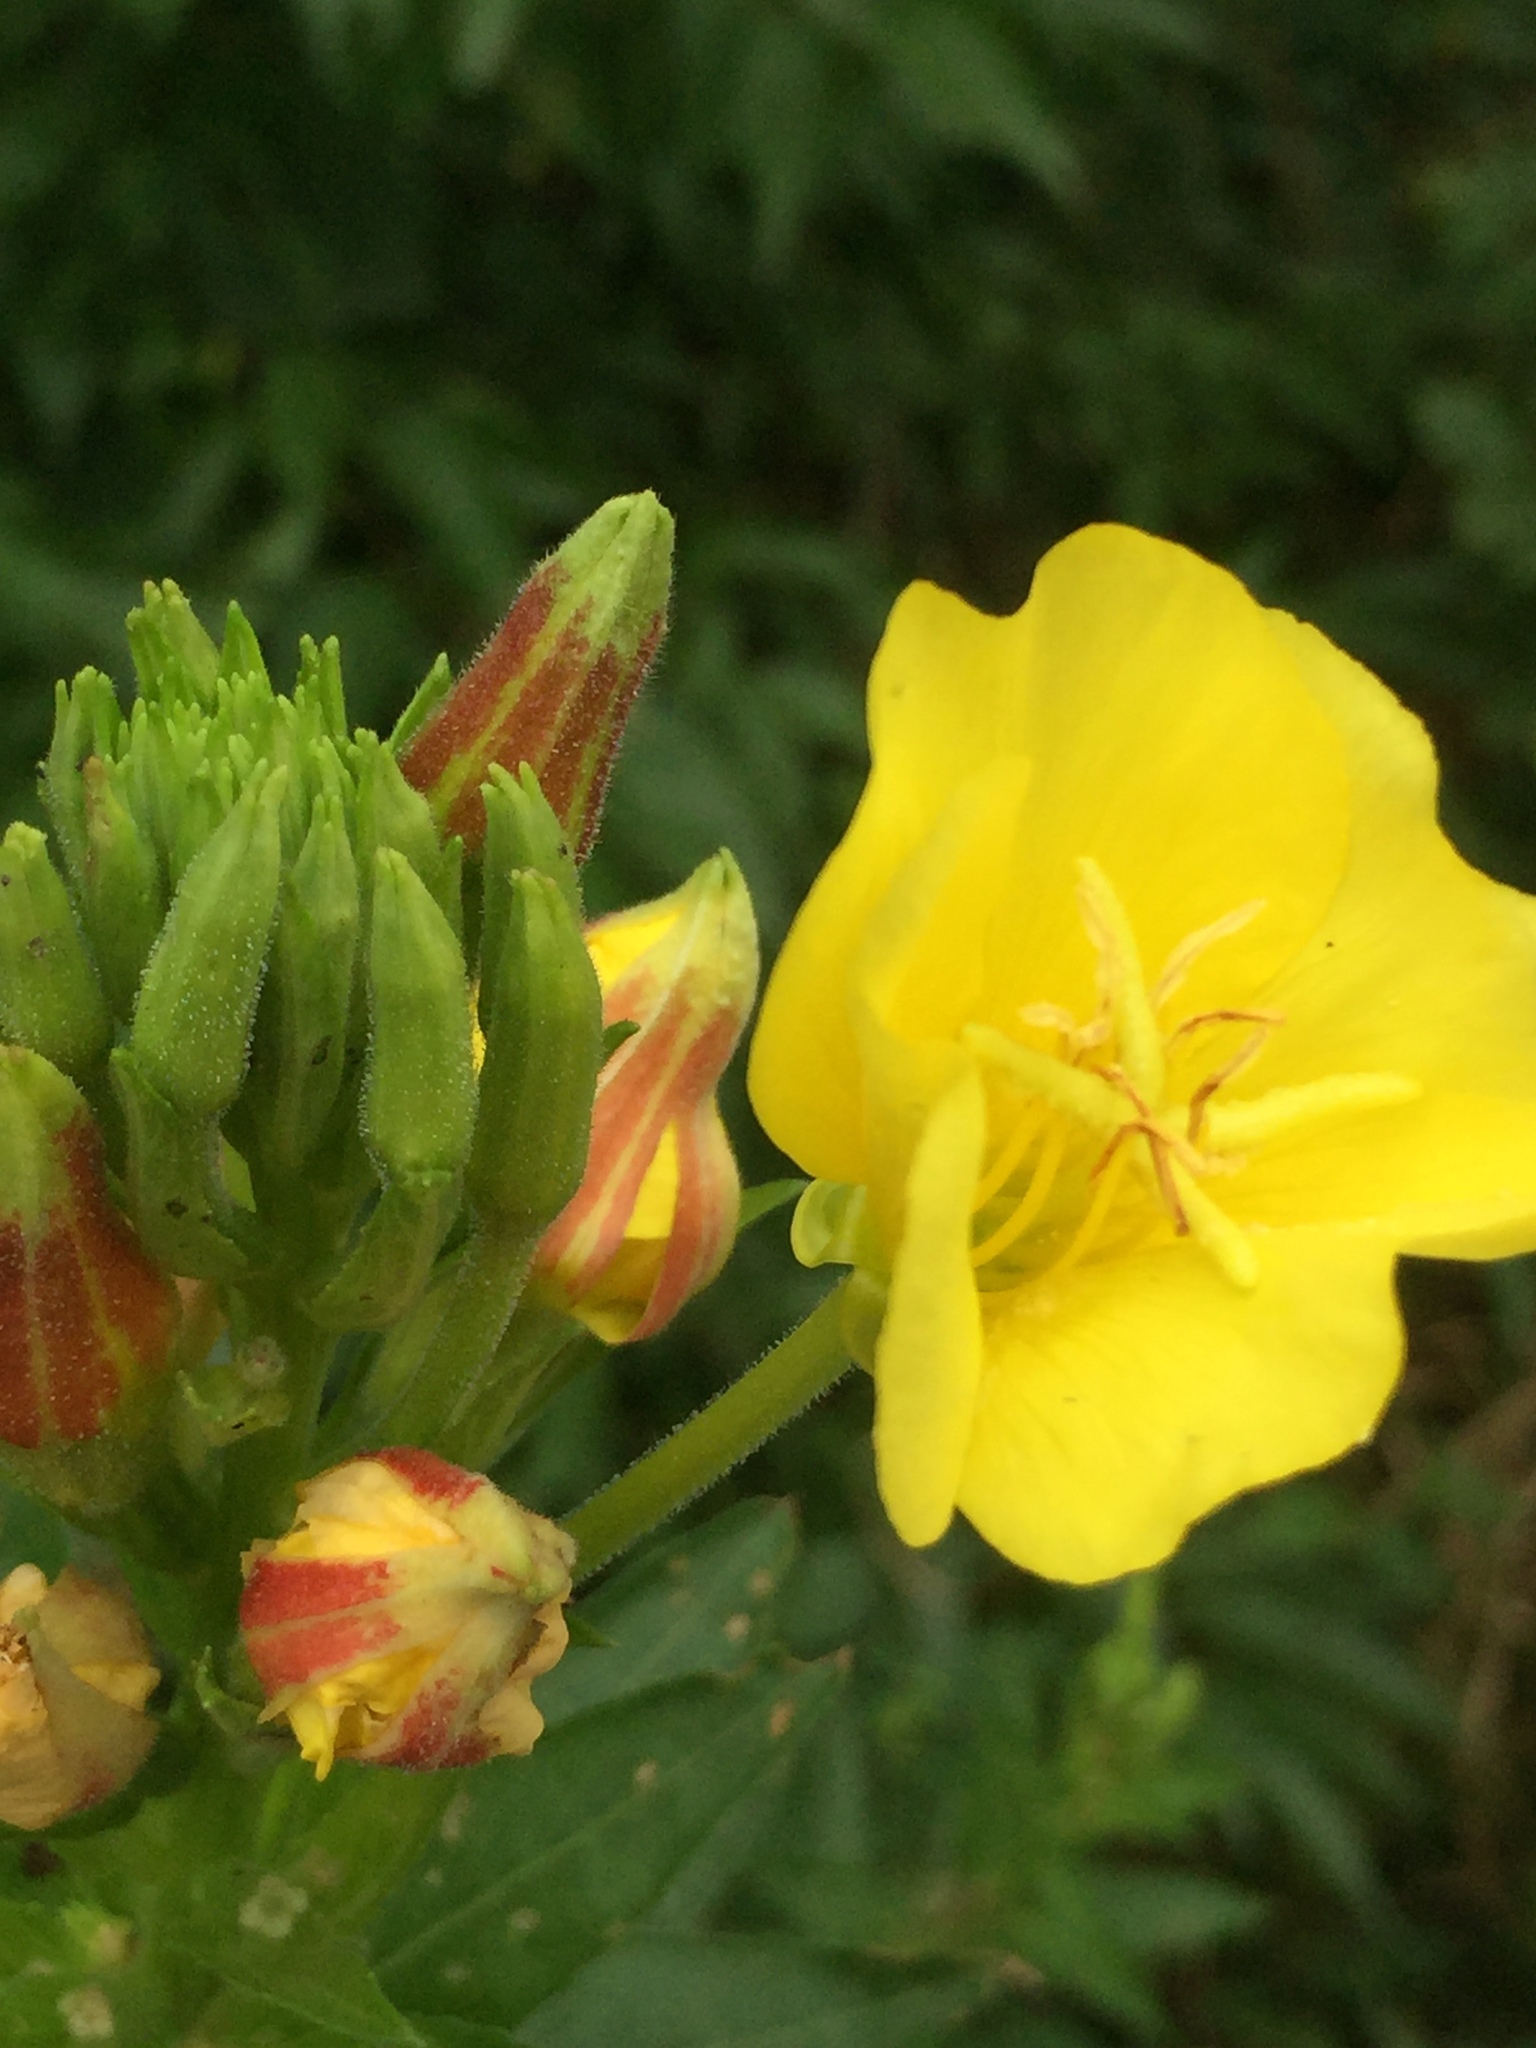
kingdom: Plantae
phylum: Tracheophyta
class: Magnoliopsida
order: Myrtales
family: Onagraceae
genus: Oenothera
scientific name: Oenothera biennis
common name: Common evening-primrose
